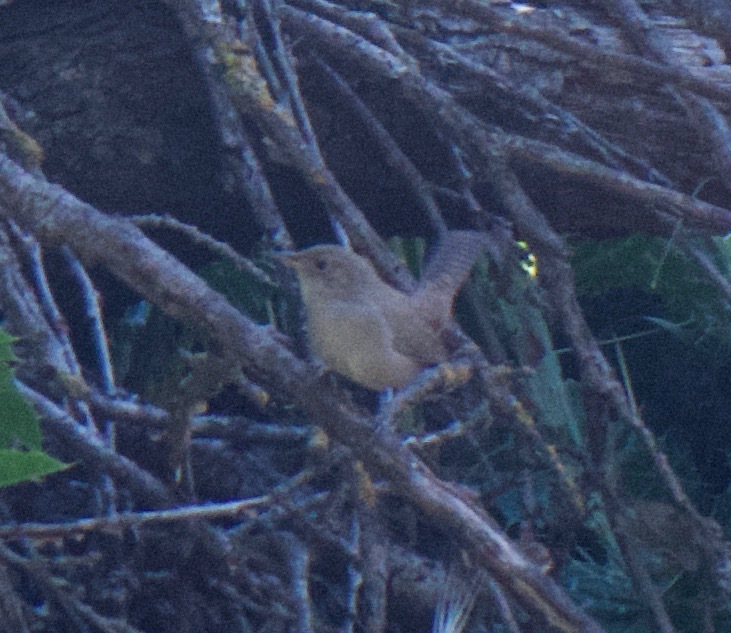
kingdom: Animalia
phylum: Chordata
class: Aves
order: Passeriformes
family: Troglodytidae
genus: Troglodytes
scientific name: Troglodytes aedon
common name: House wren
